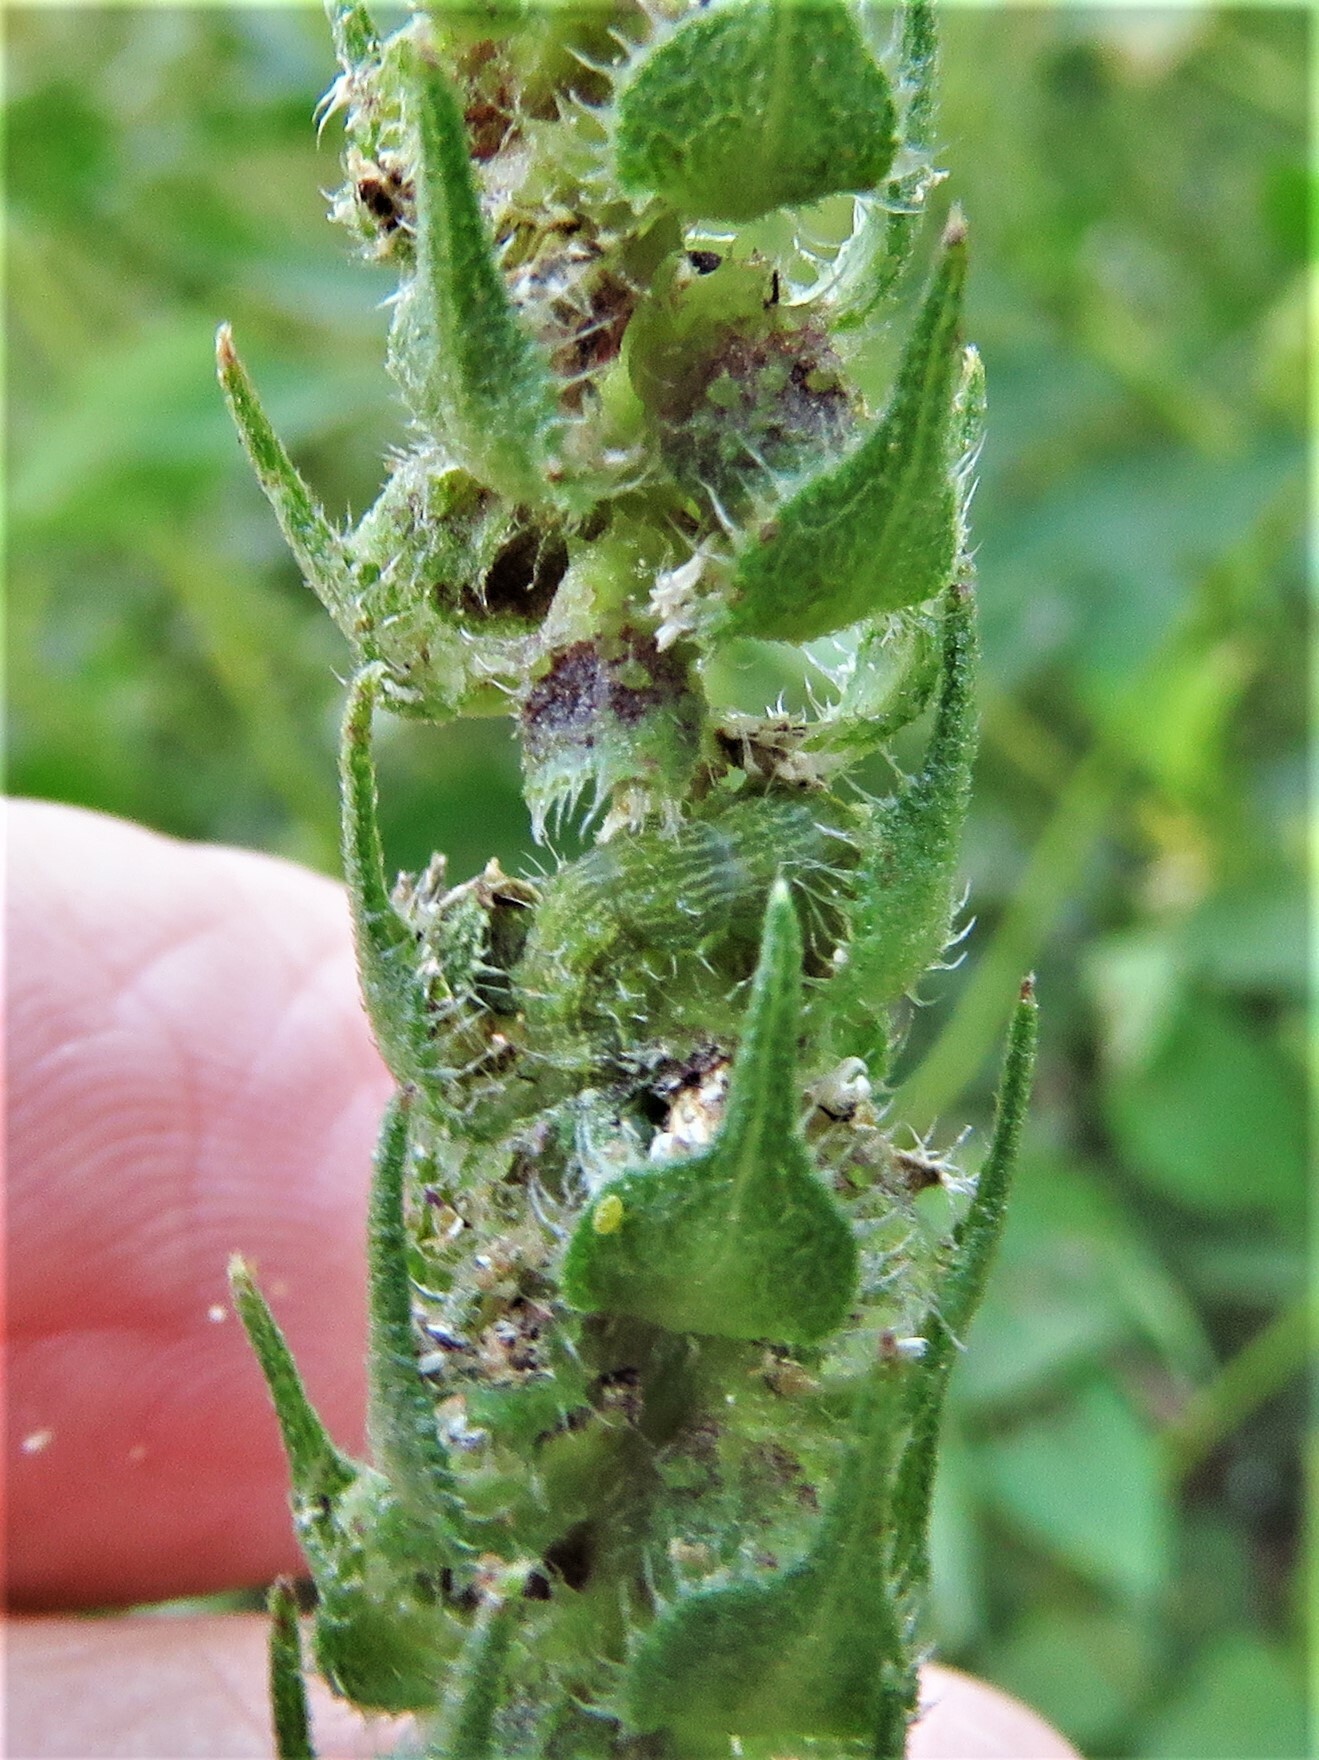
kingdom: Animalia
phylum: Arthropoda
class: Insecta
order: Lepidoptera
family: Noctuidae
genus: Schinia
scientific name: Schinia gracilenta
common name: Slender flower moth
